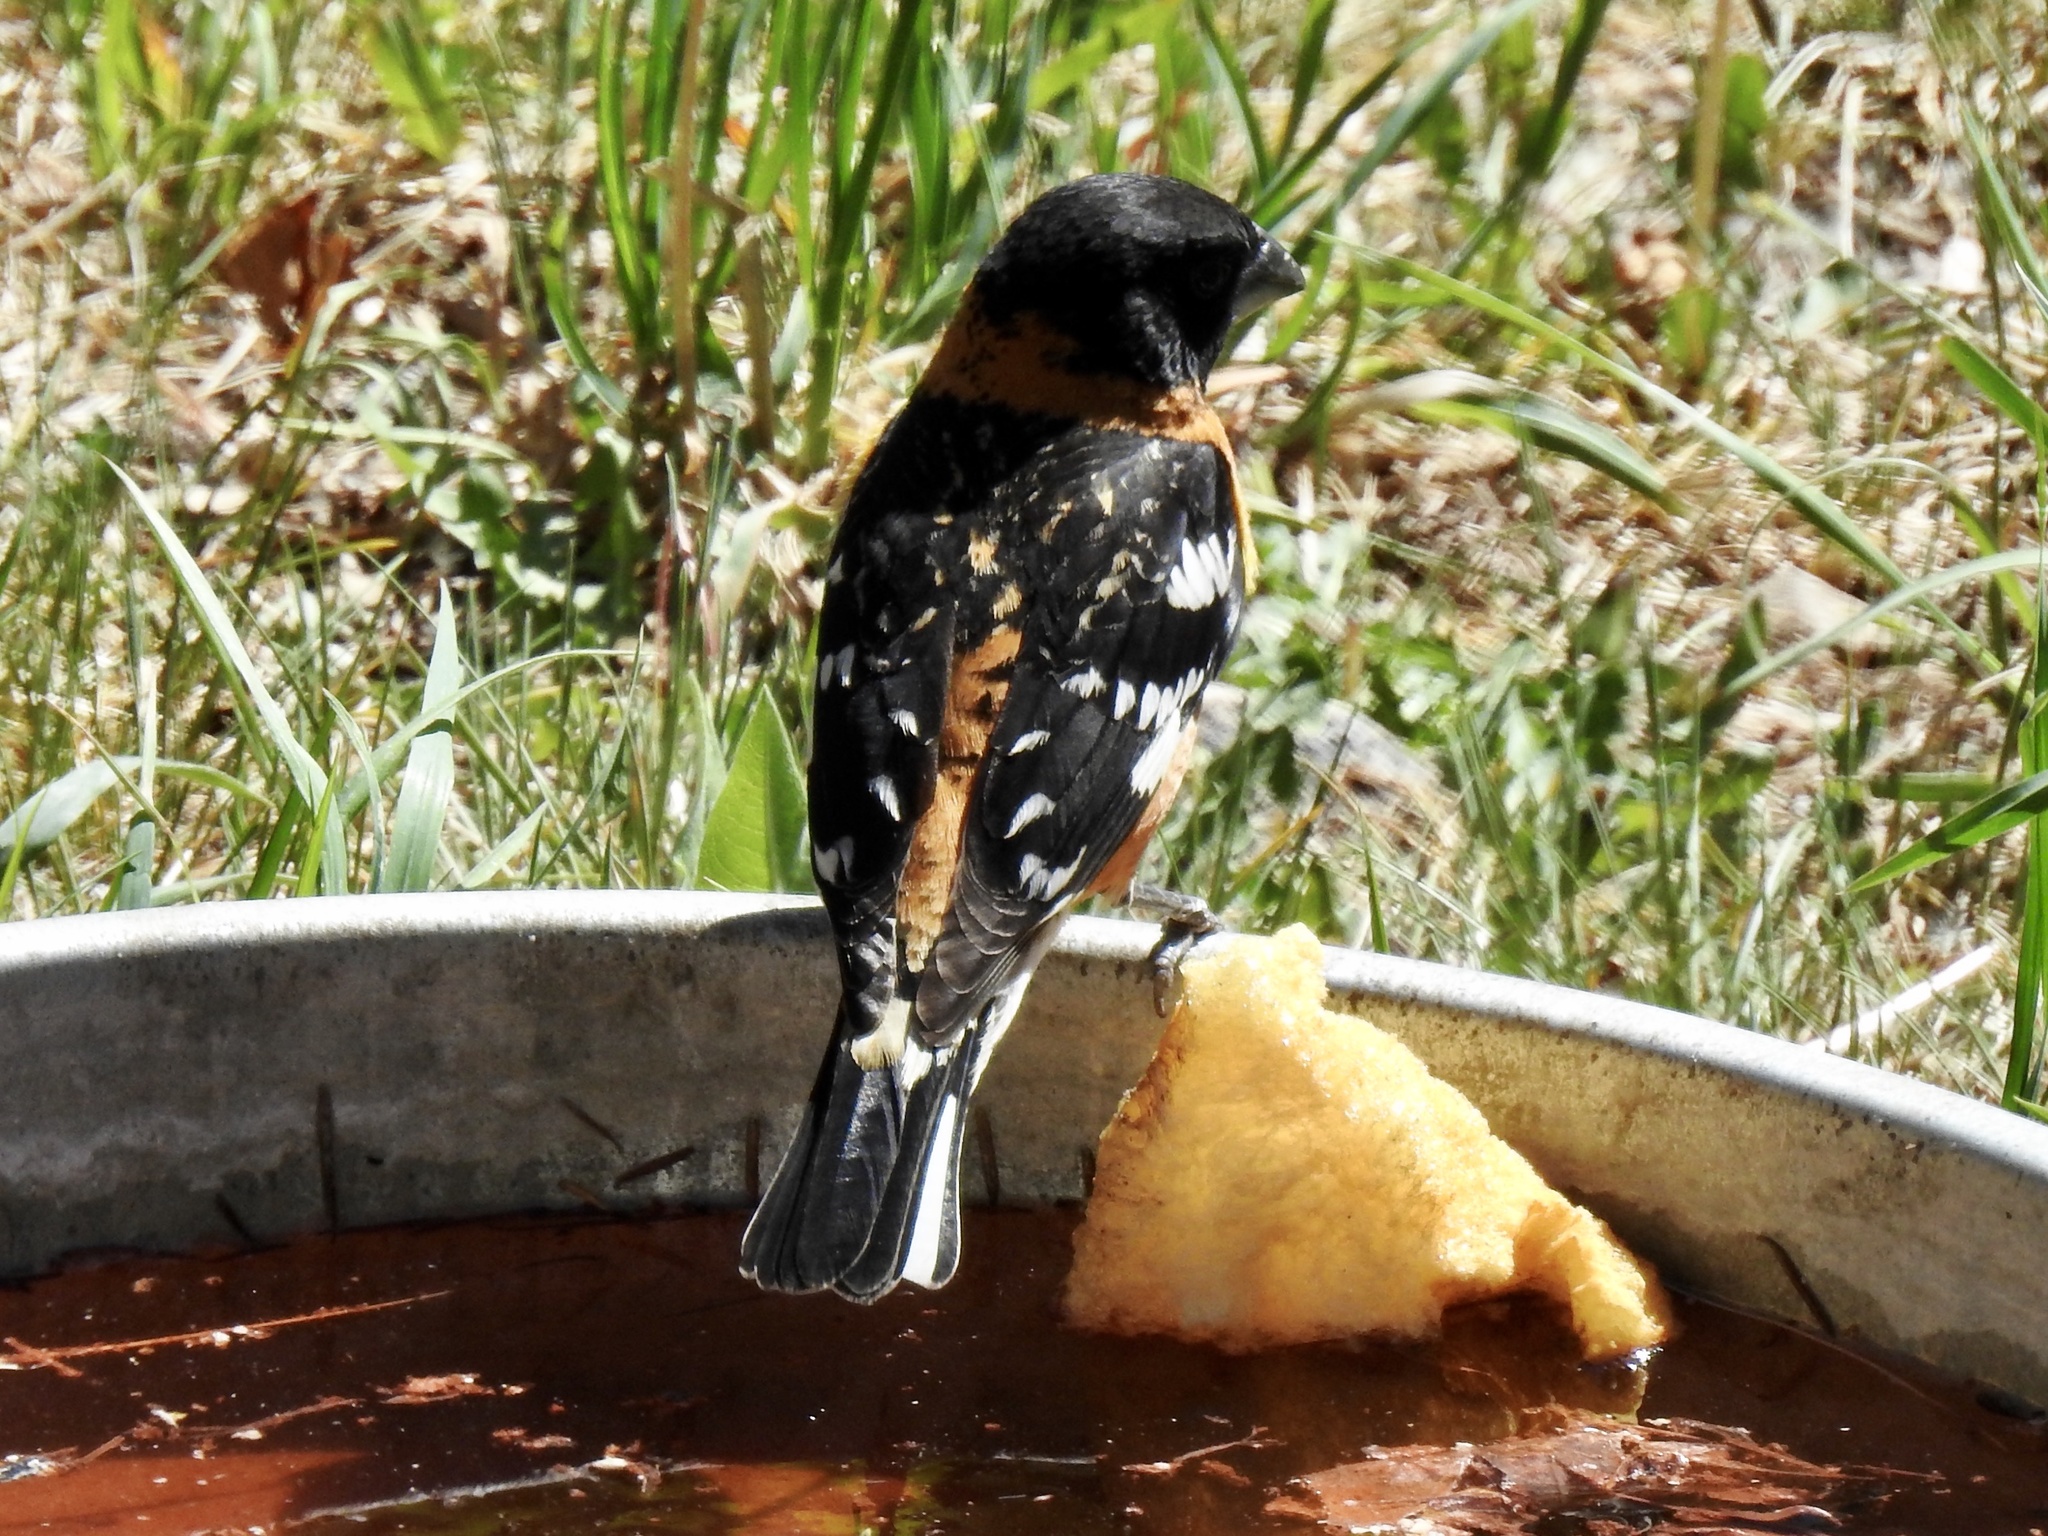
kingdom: Animalia
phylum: Chordata
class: Aves
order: Passeriformes
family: Cardinalidae
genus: Pheucticus
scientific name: Pheucticus melanocephalus
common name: Black-headed grosbeak
